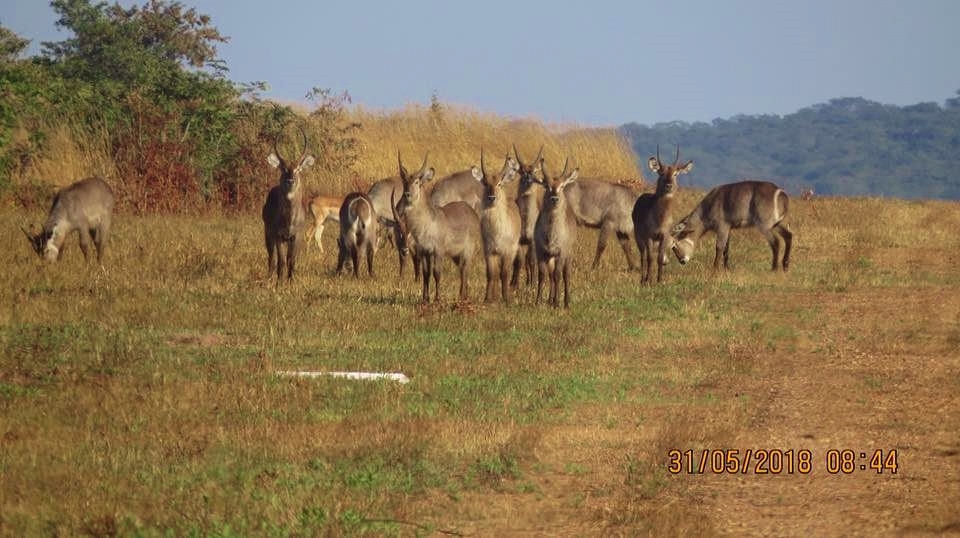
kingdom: Animalia
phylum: Chordata
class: Mammalia
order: Artiodactyla
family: Bovidae
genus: Kobus
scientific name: Kobus ellipsiprymnus
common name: Waterbuck
